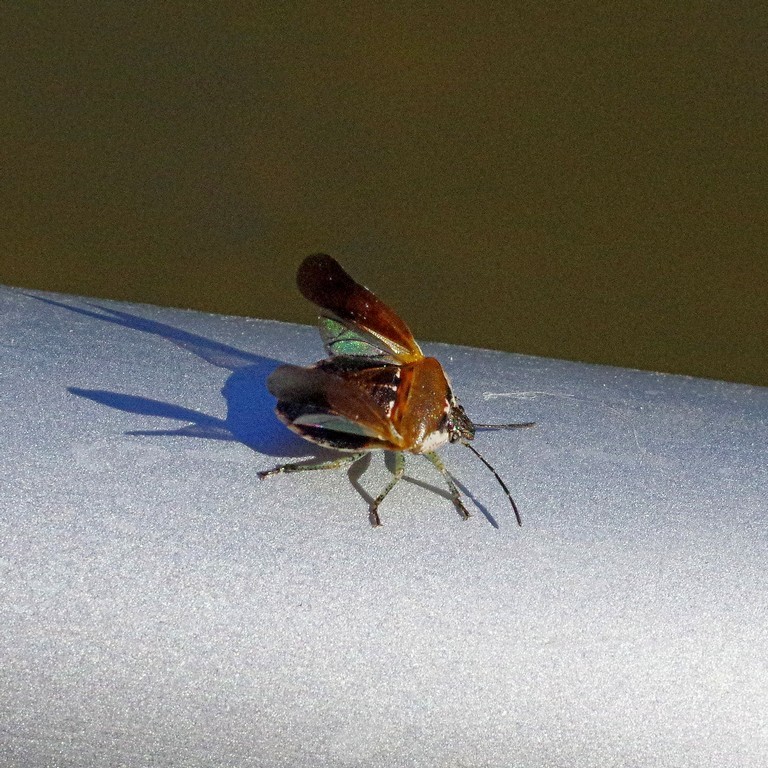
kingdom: Animalia
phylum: Arthropoda
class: Insecta
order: Hemiptera
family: Pentatomidae
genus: Monteithiella
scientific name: Monteithiella
